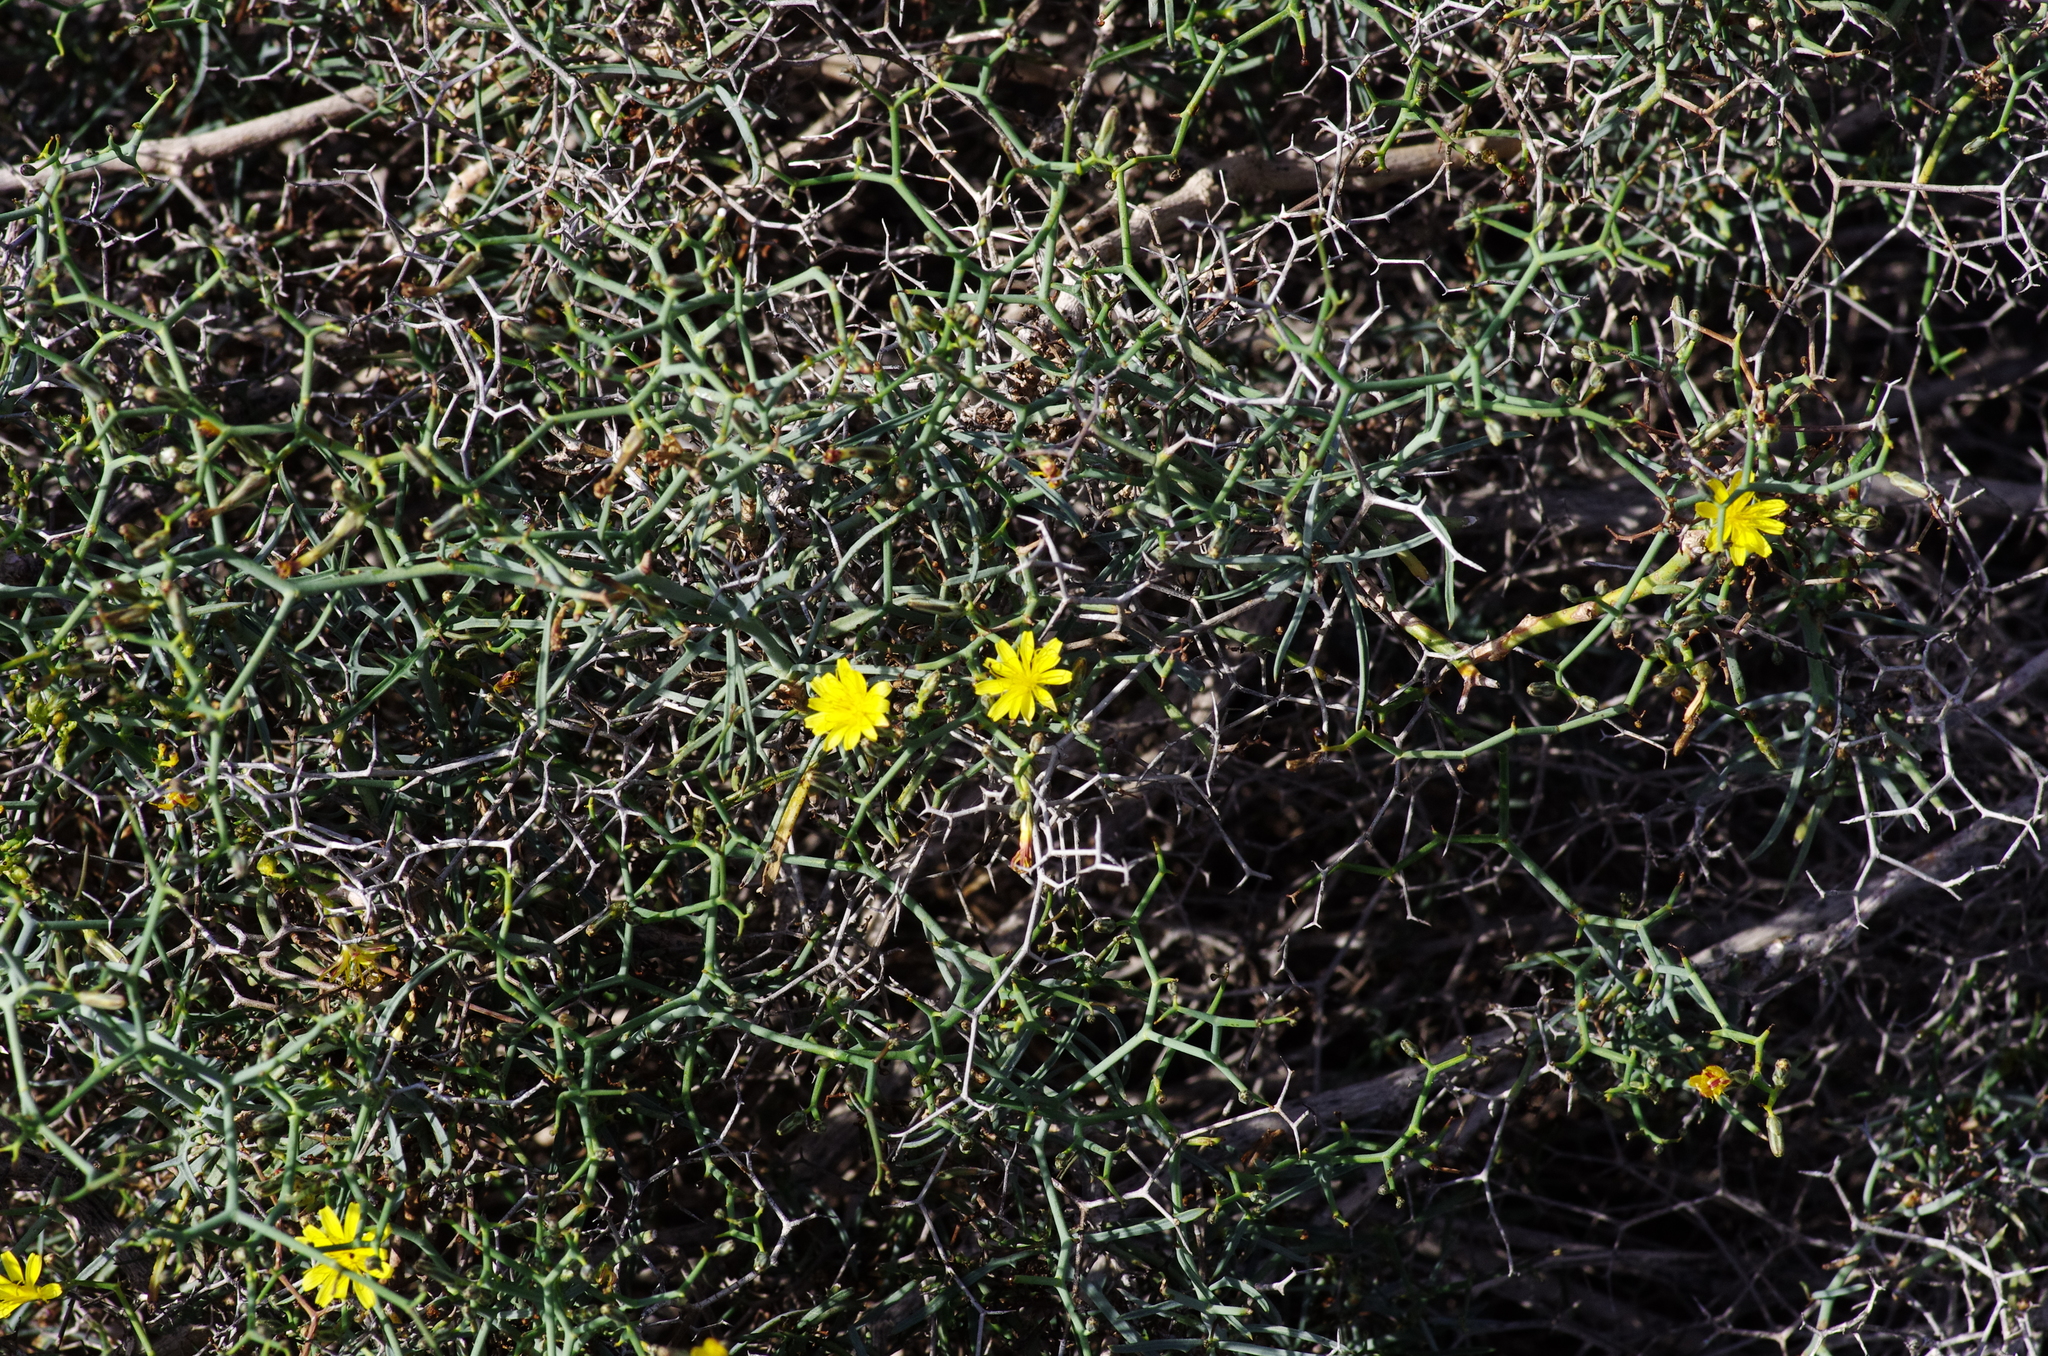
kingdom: Plantae
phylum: Tracheophyta
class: Magnoliopsida
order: Asterales
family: Asteraceae
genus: Launaea
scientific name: Launaea arborescens
